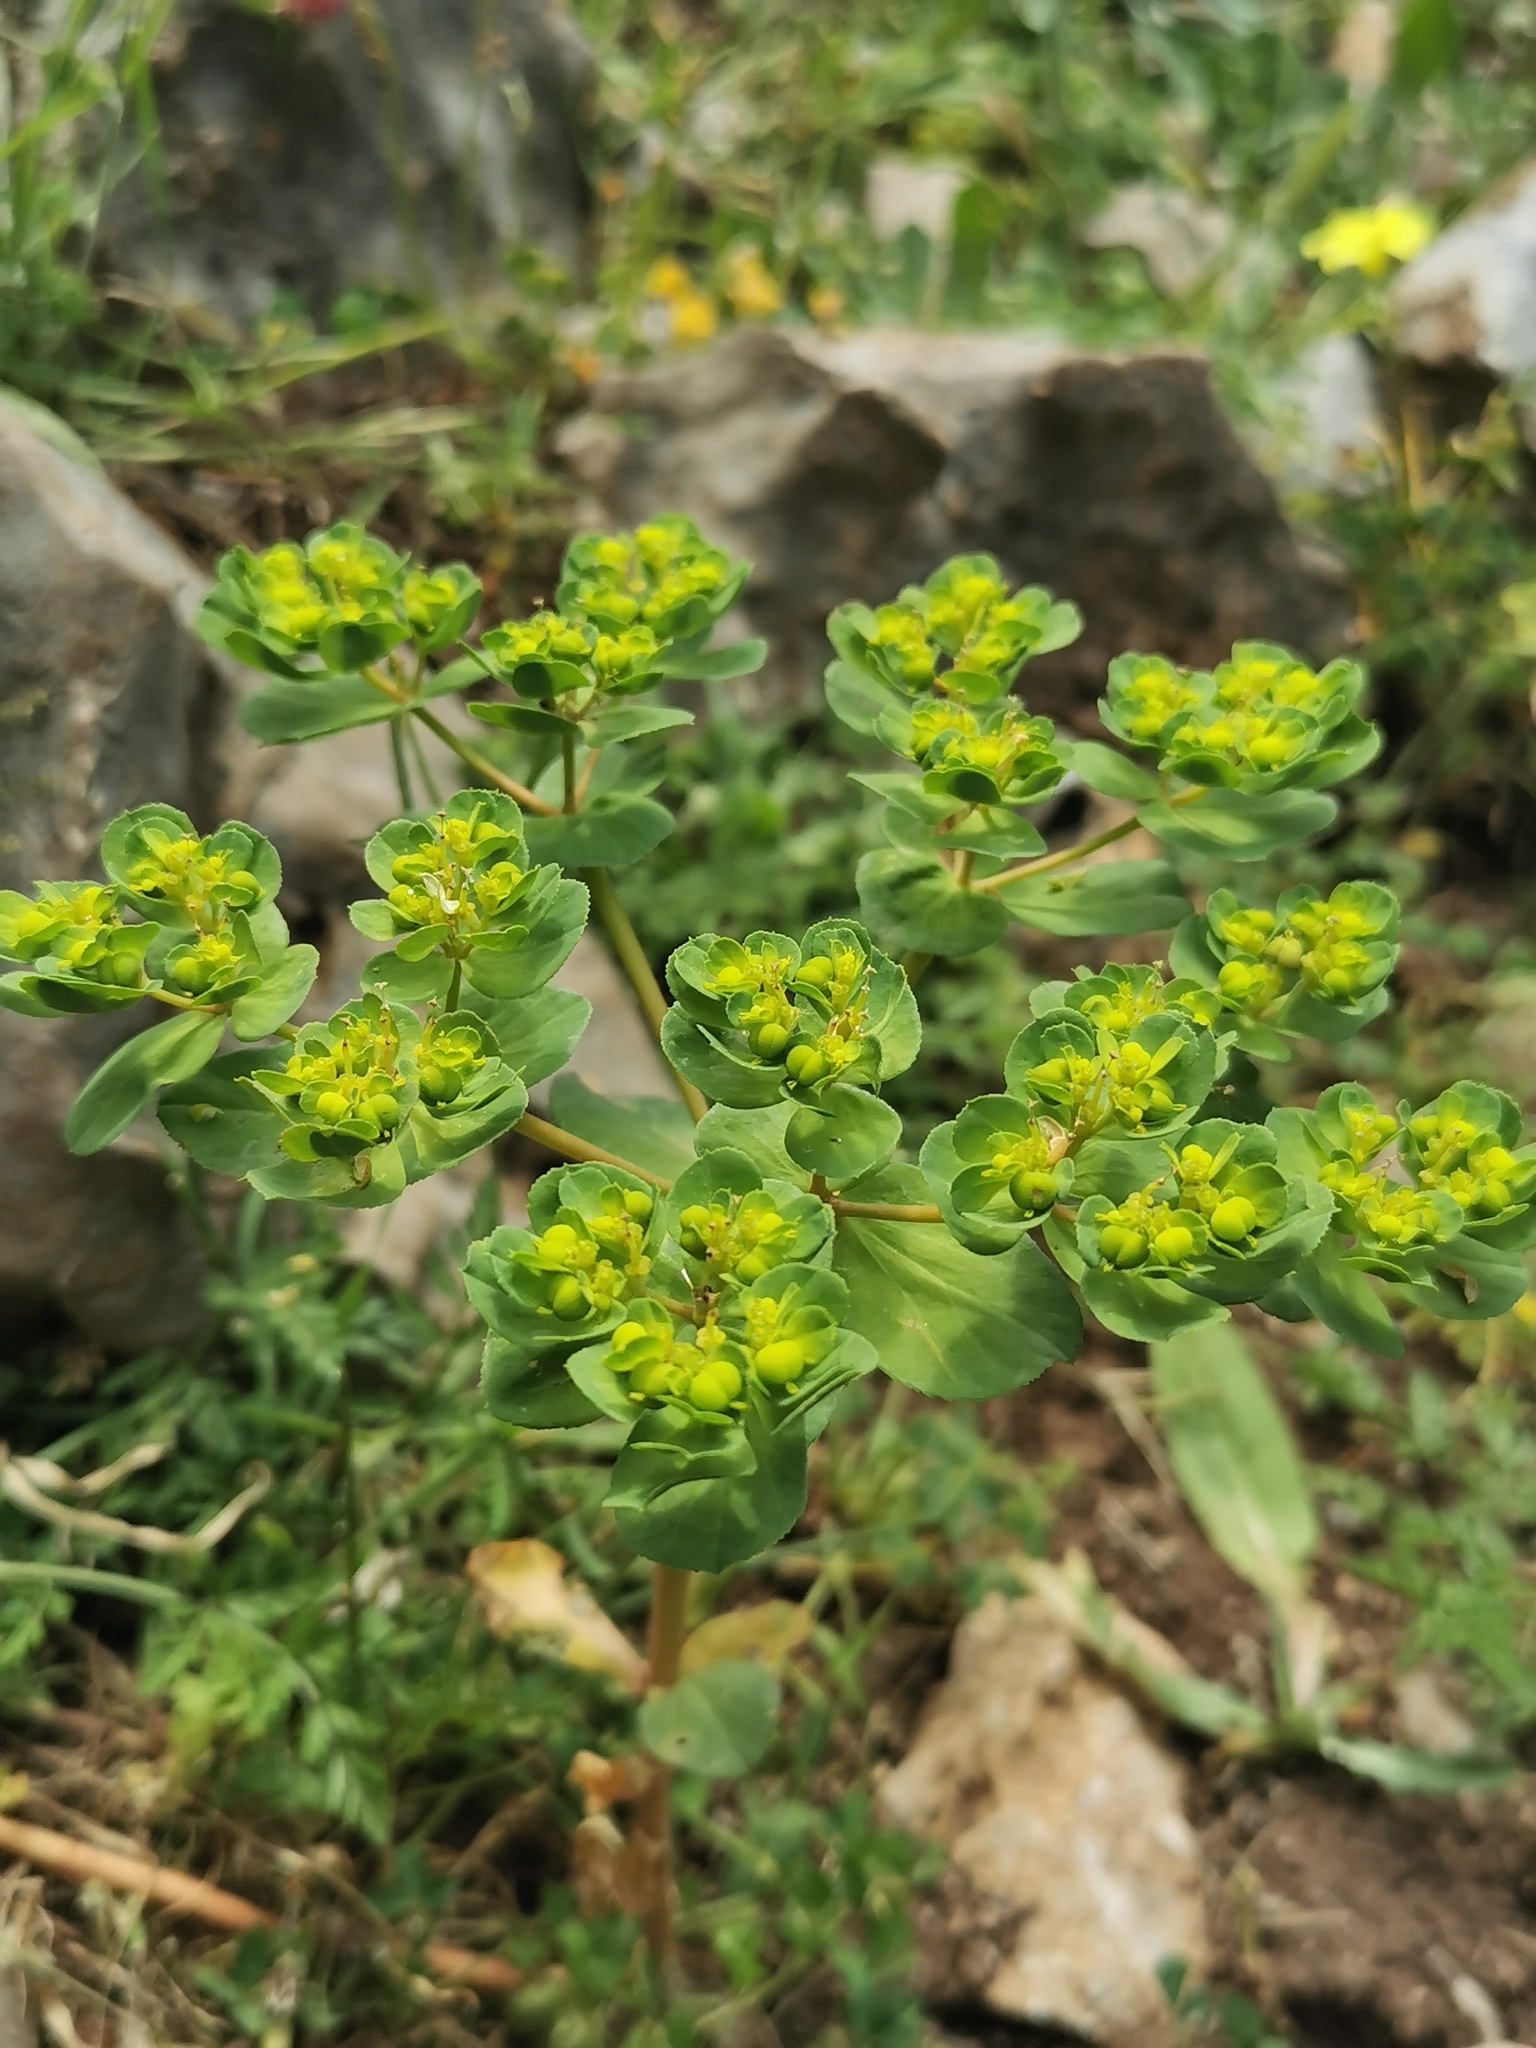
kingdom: Plantae
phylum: Tracheophyta
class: Magnoliopsida
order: Malpighiales
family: Euphorbiaceae
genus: Euphorbia
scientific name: Euphorbia helioscopia
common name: Sun spurge
